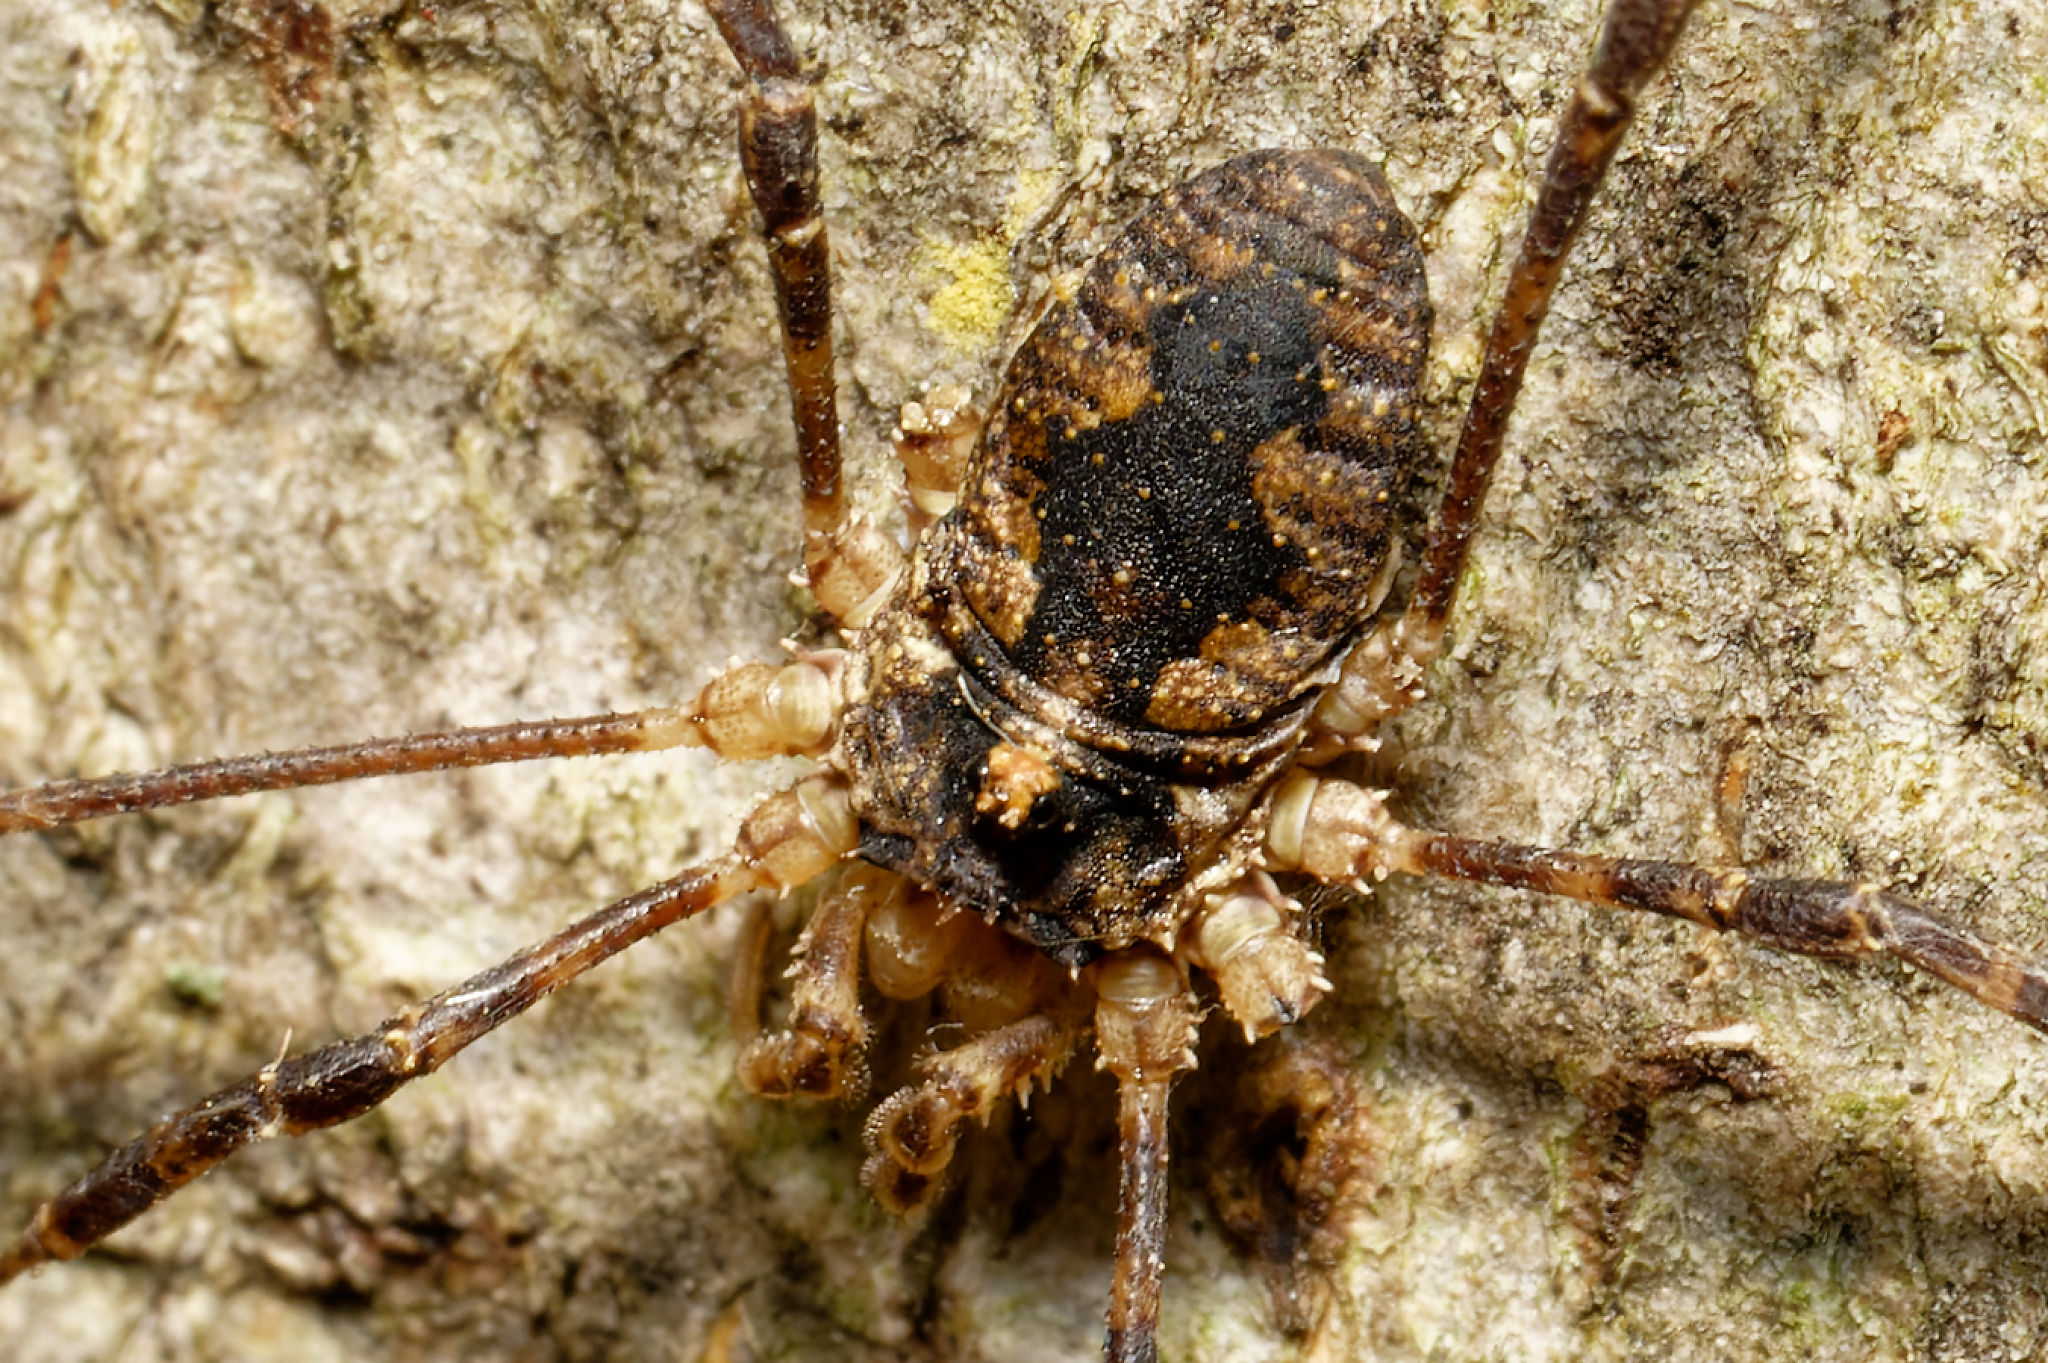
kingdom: Animalia
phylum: Arthropoda
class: Arachnida
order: Opiliones
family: Phalangiidae
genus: Odiellus
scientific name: Odiellus pictus
